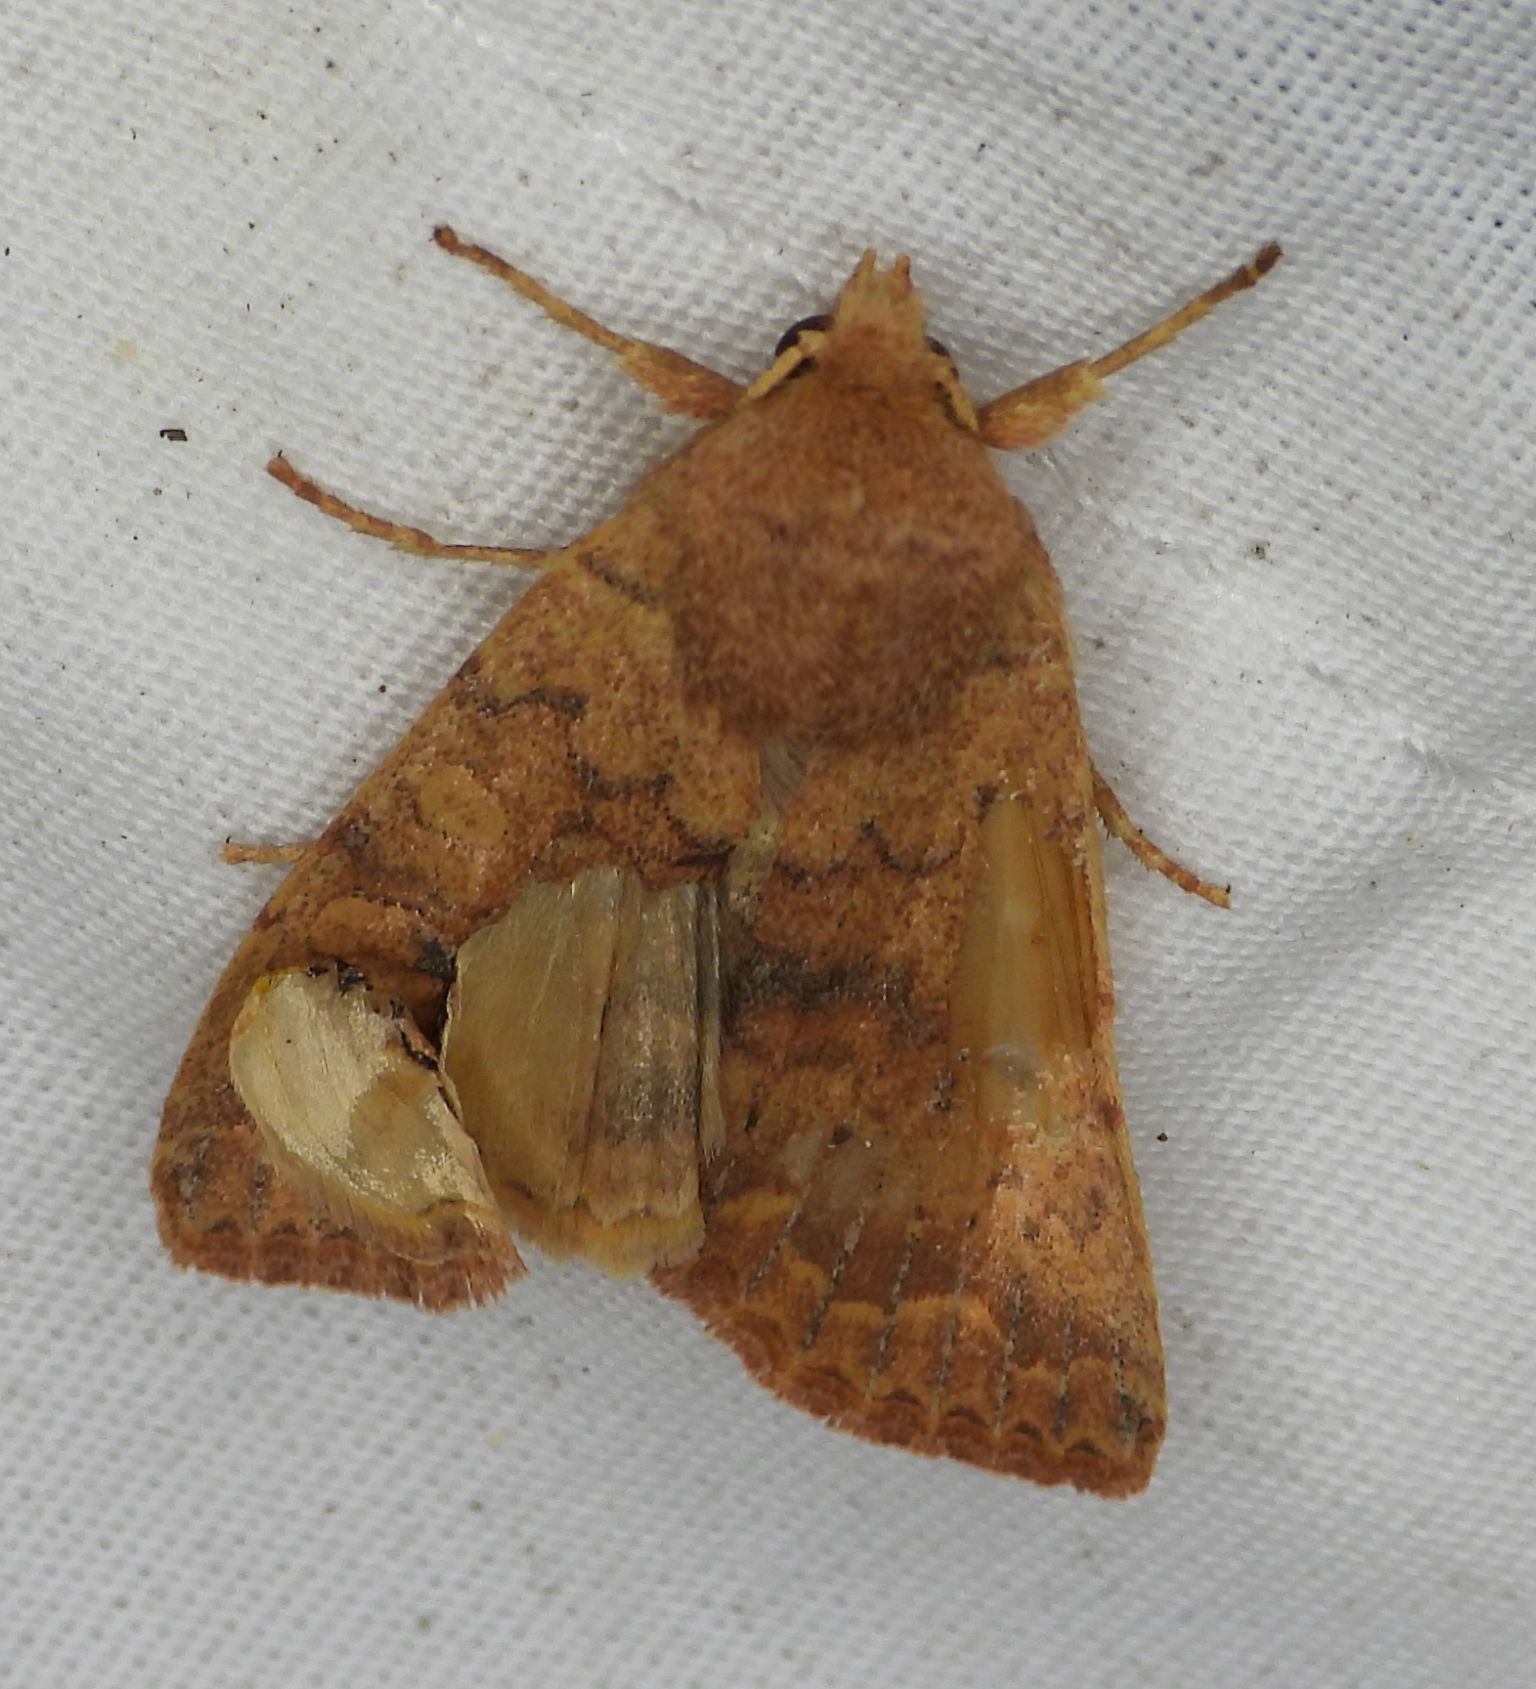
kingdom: Animalia
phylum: Arthropoda
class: Insecta
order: Lepidoptera
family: Noctuidae
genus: Agrochola
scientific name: Agrochola bicolorago
